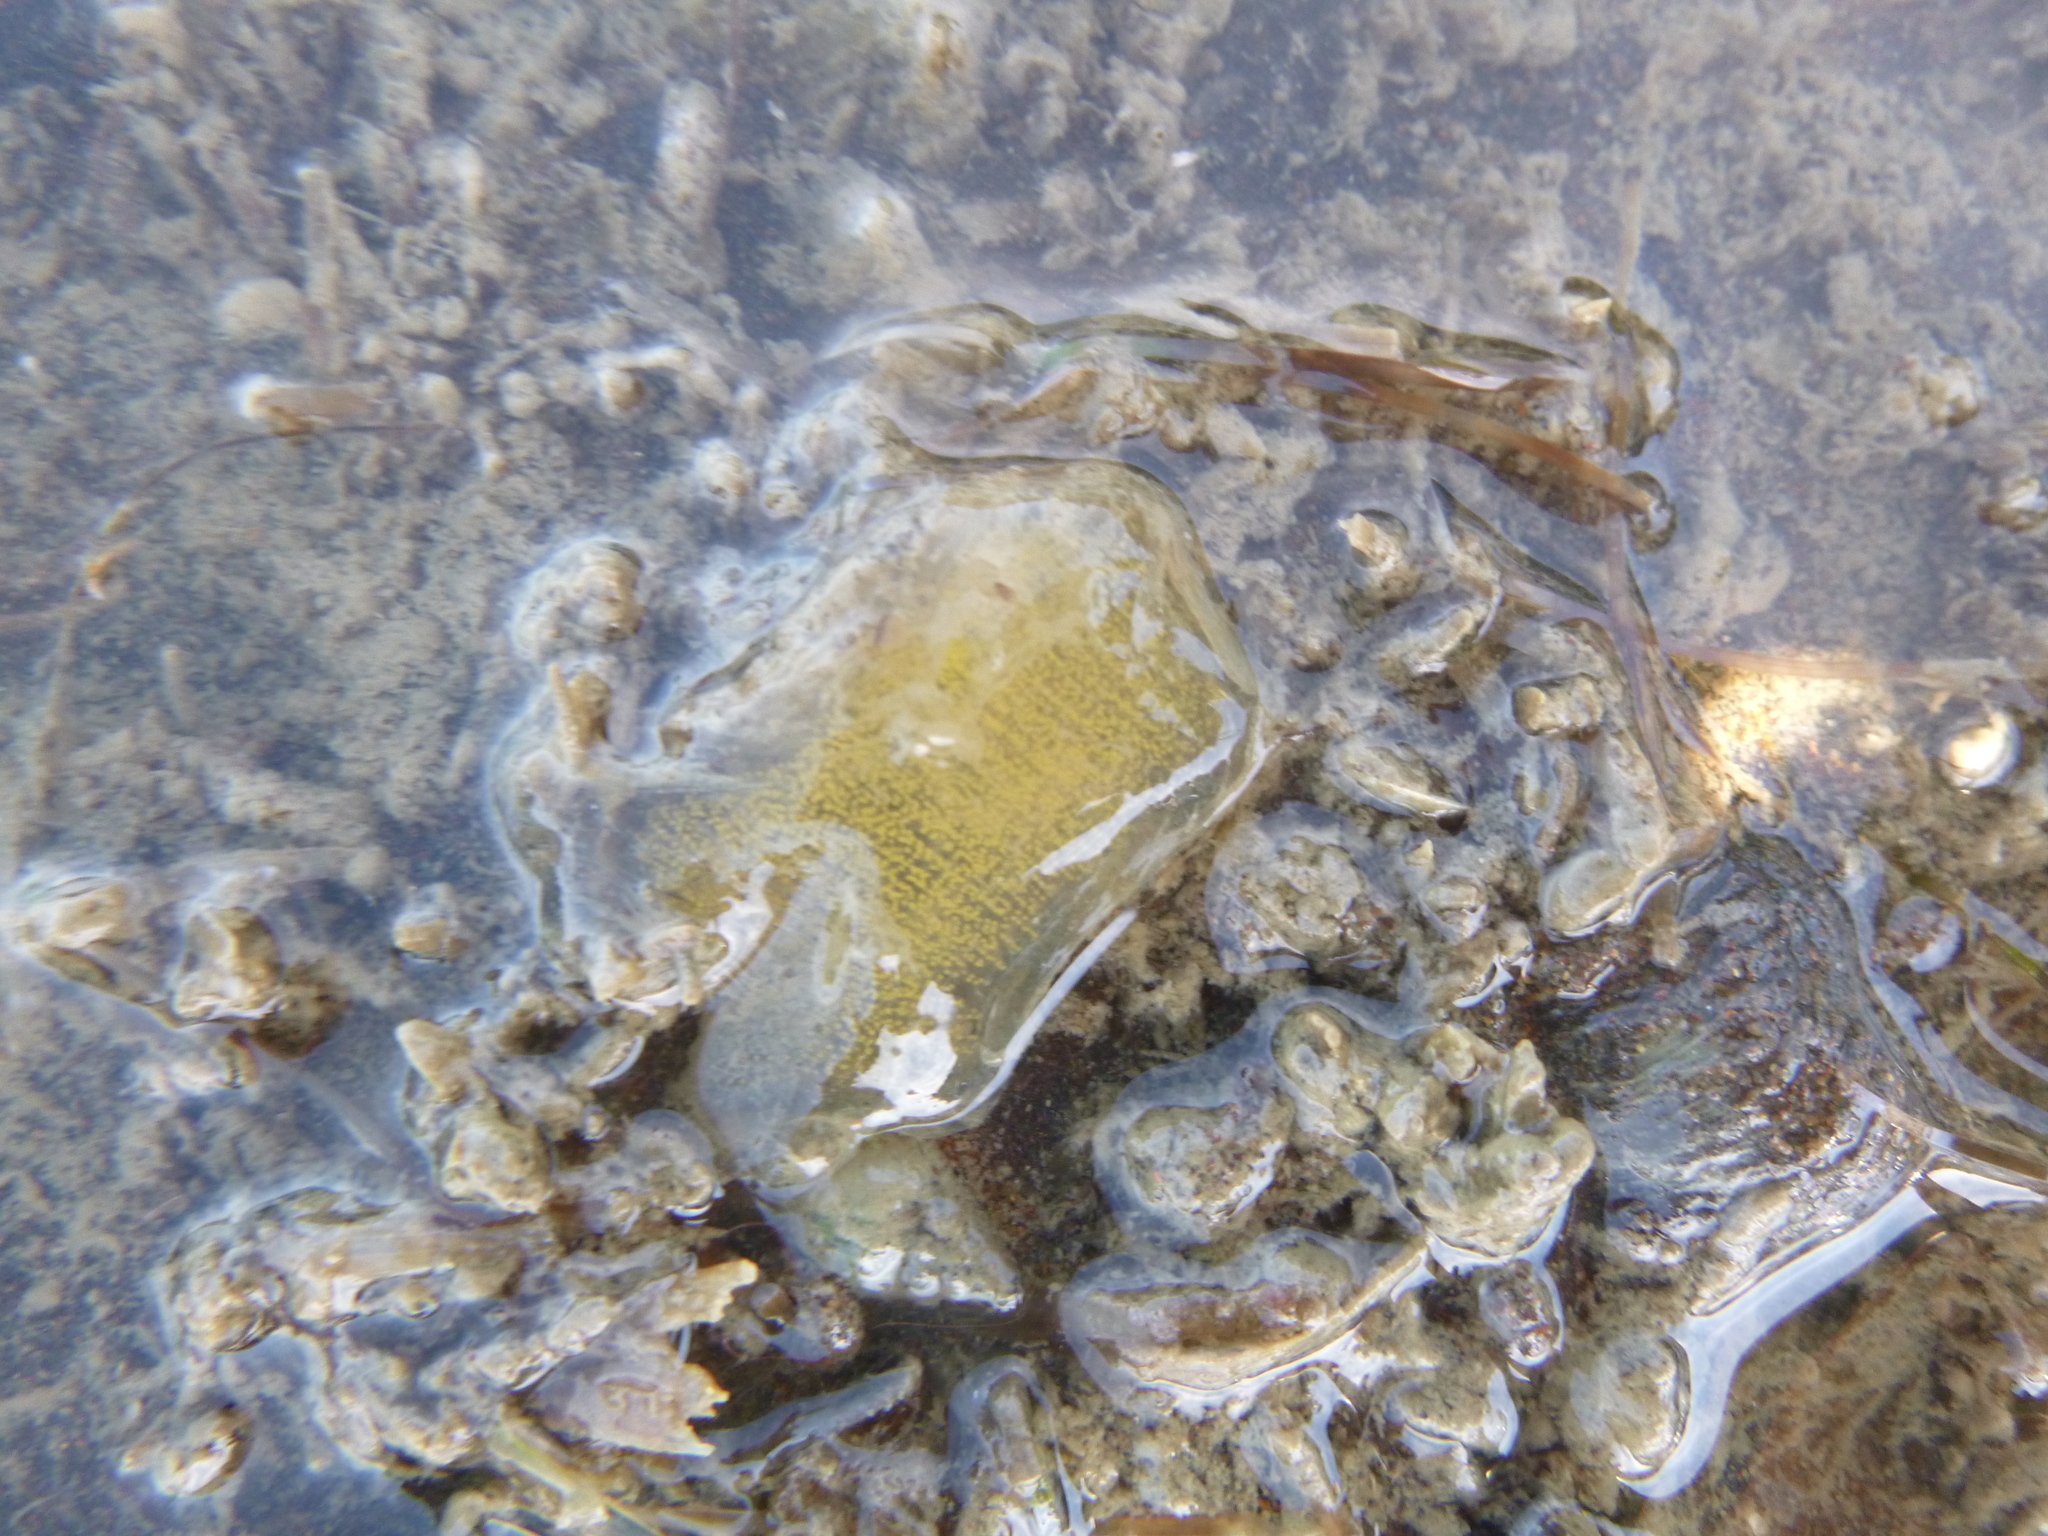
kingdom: Animalia
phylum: Mollusca
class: Gastropoda
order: Cephalaspidea
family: Haminoeidae
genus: Papawera
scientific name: Papawera zelandiae
